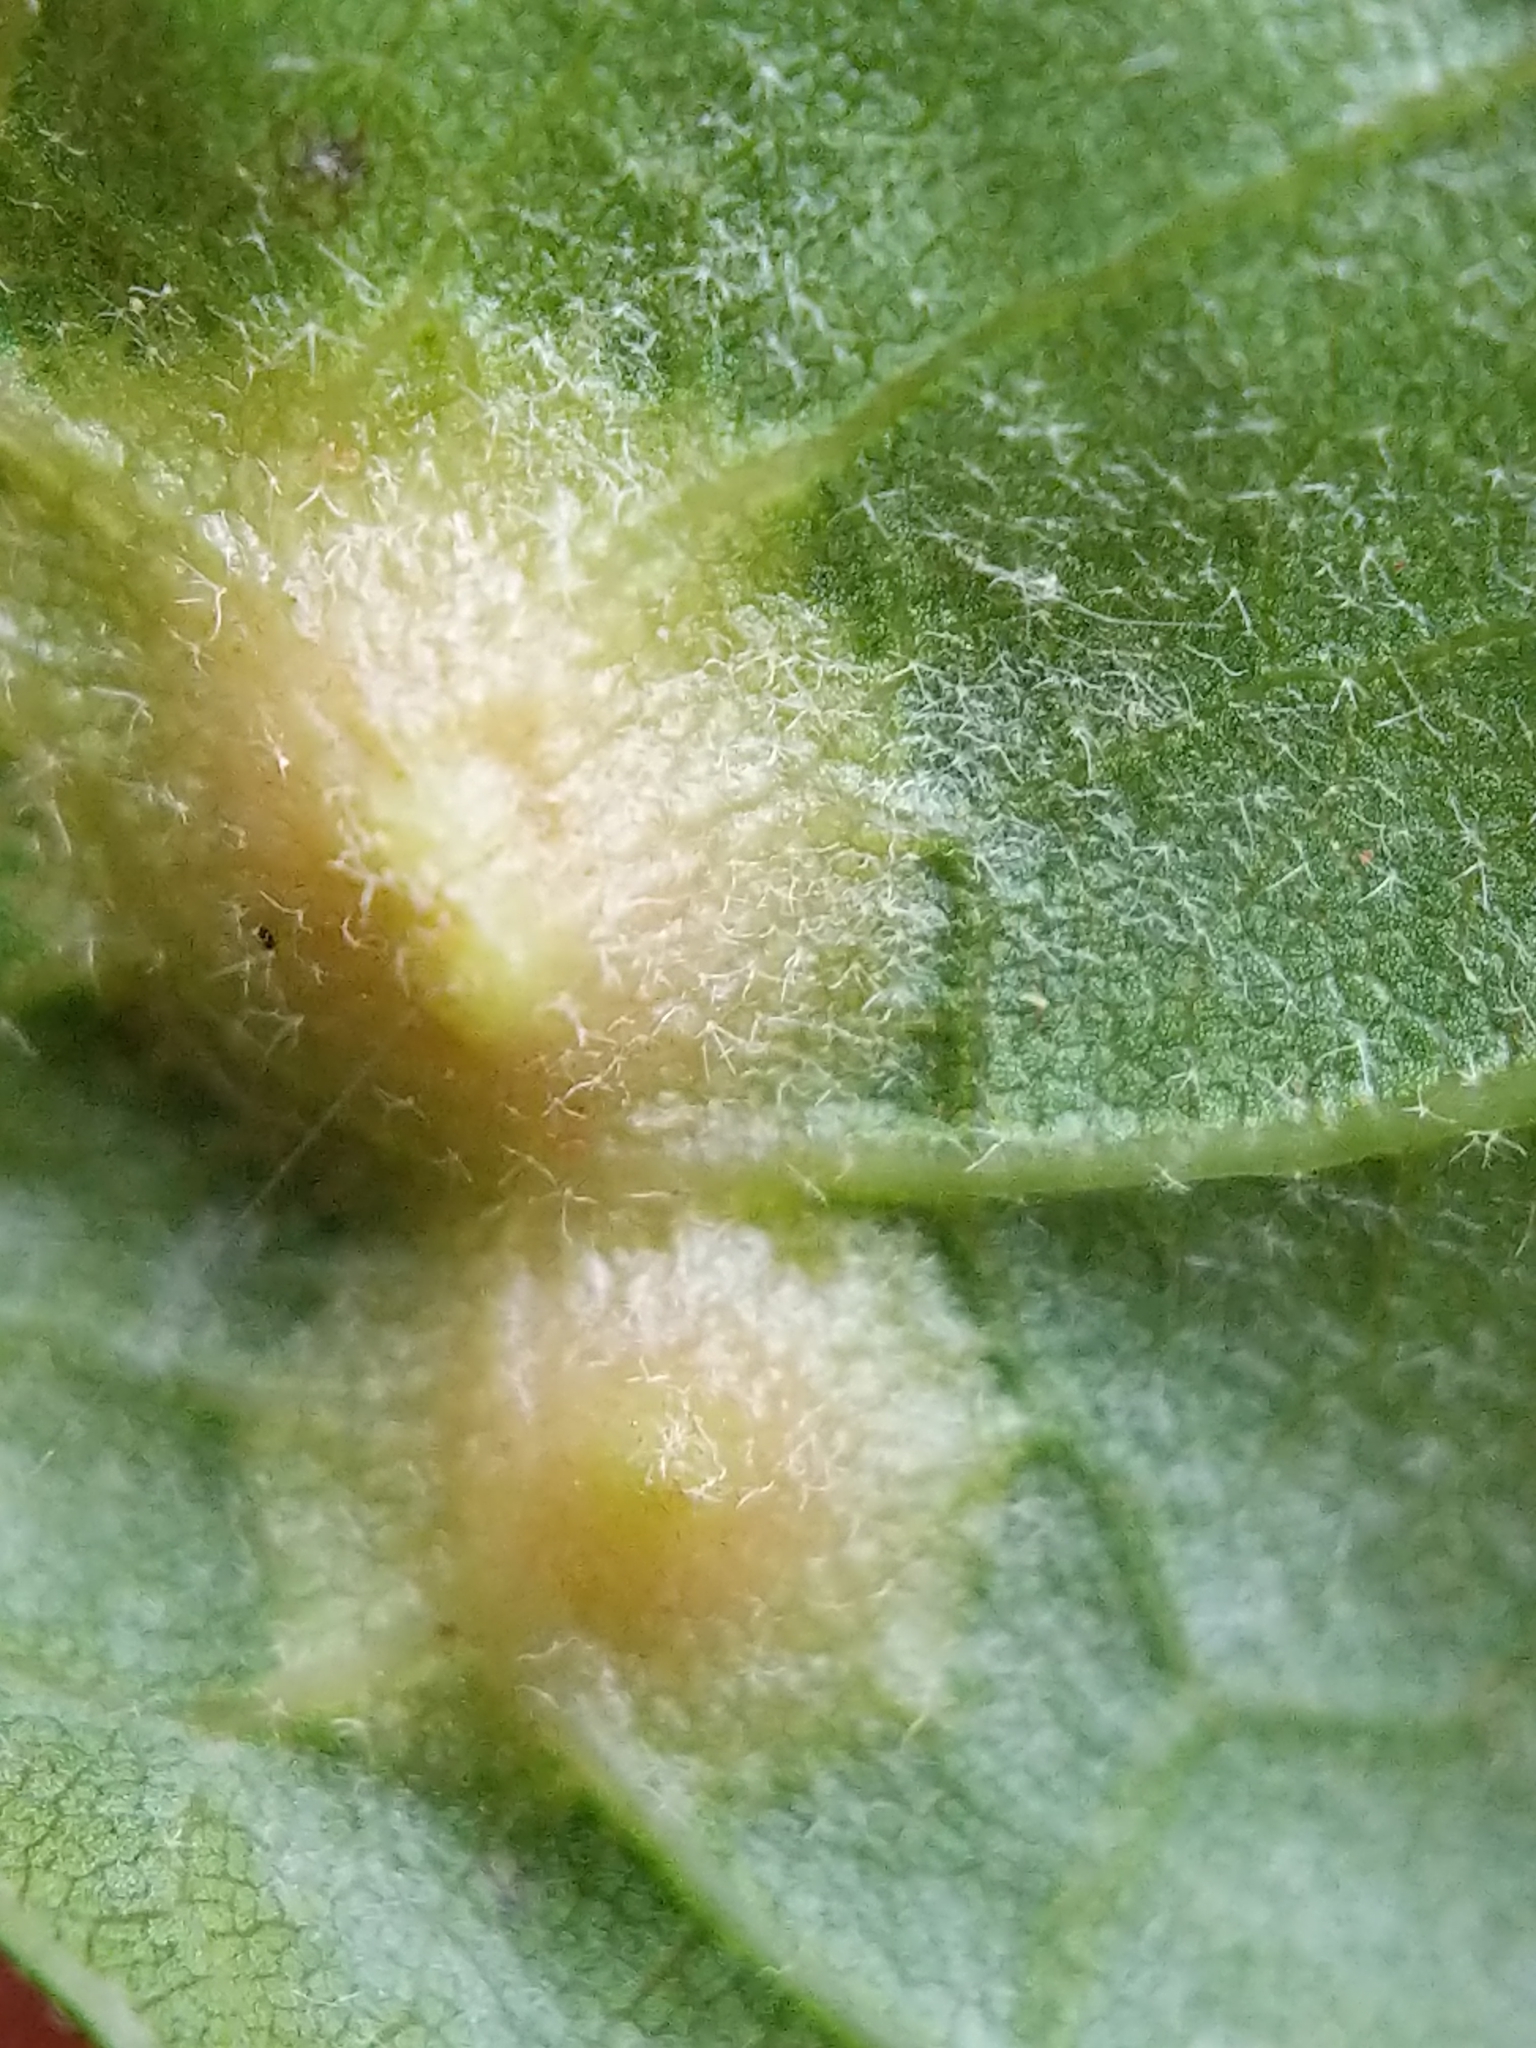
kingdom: Animalia
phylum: Arthropoda
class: Insecta
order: Diptera
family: Cecidomyiidae
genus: Polystepha
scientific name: Polystepha pilulae
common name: Oak leaf gall midge
